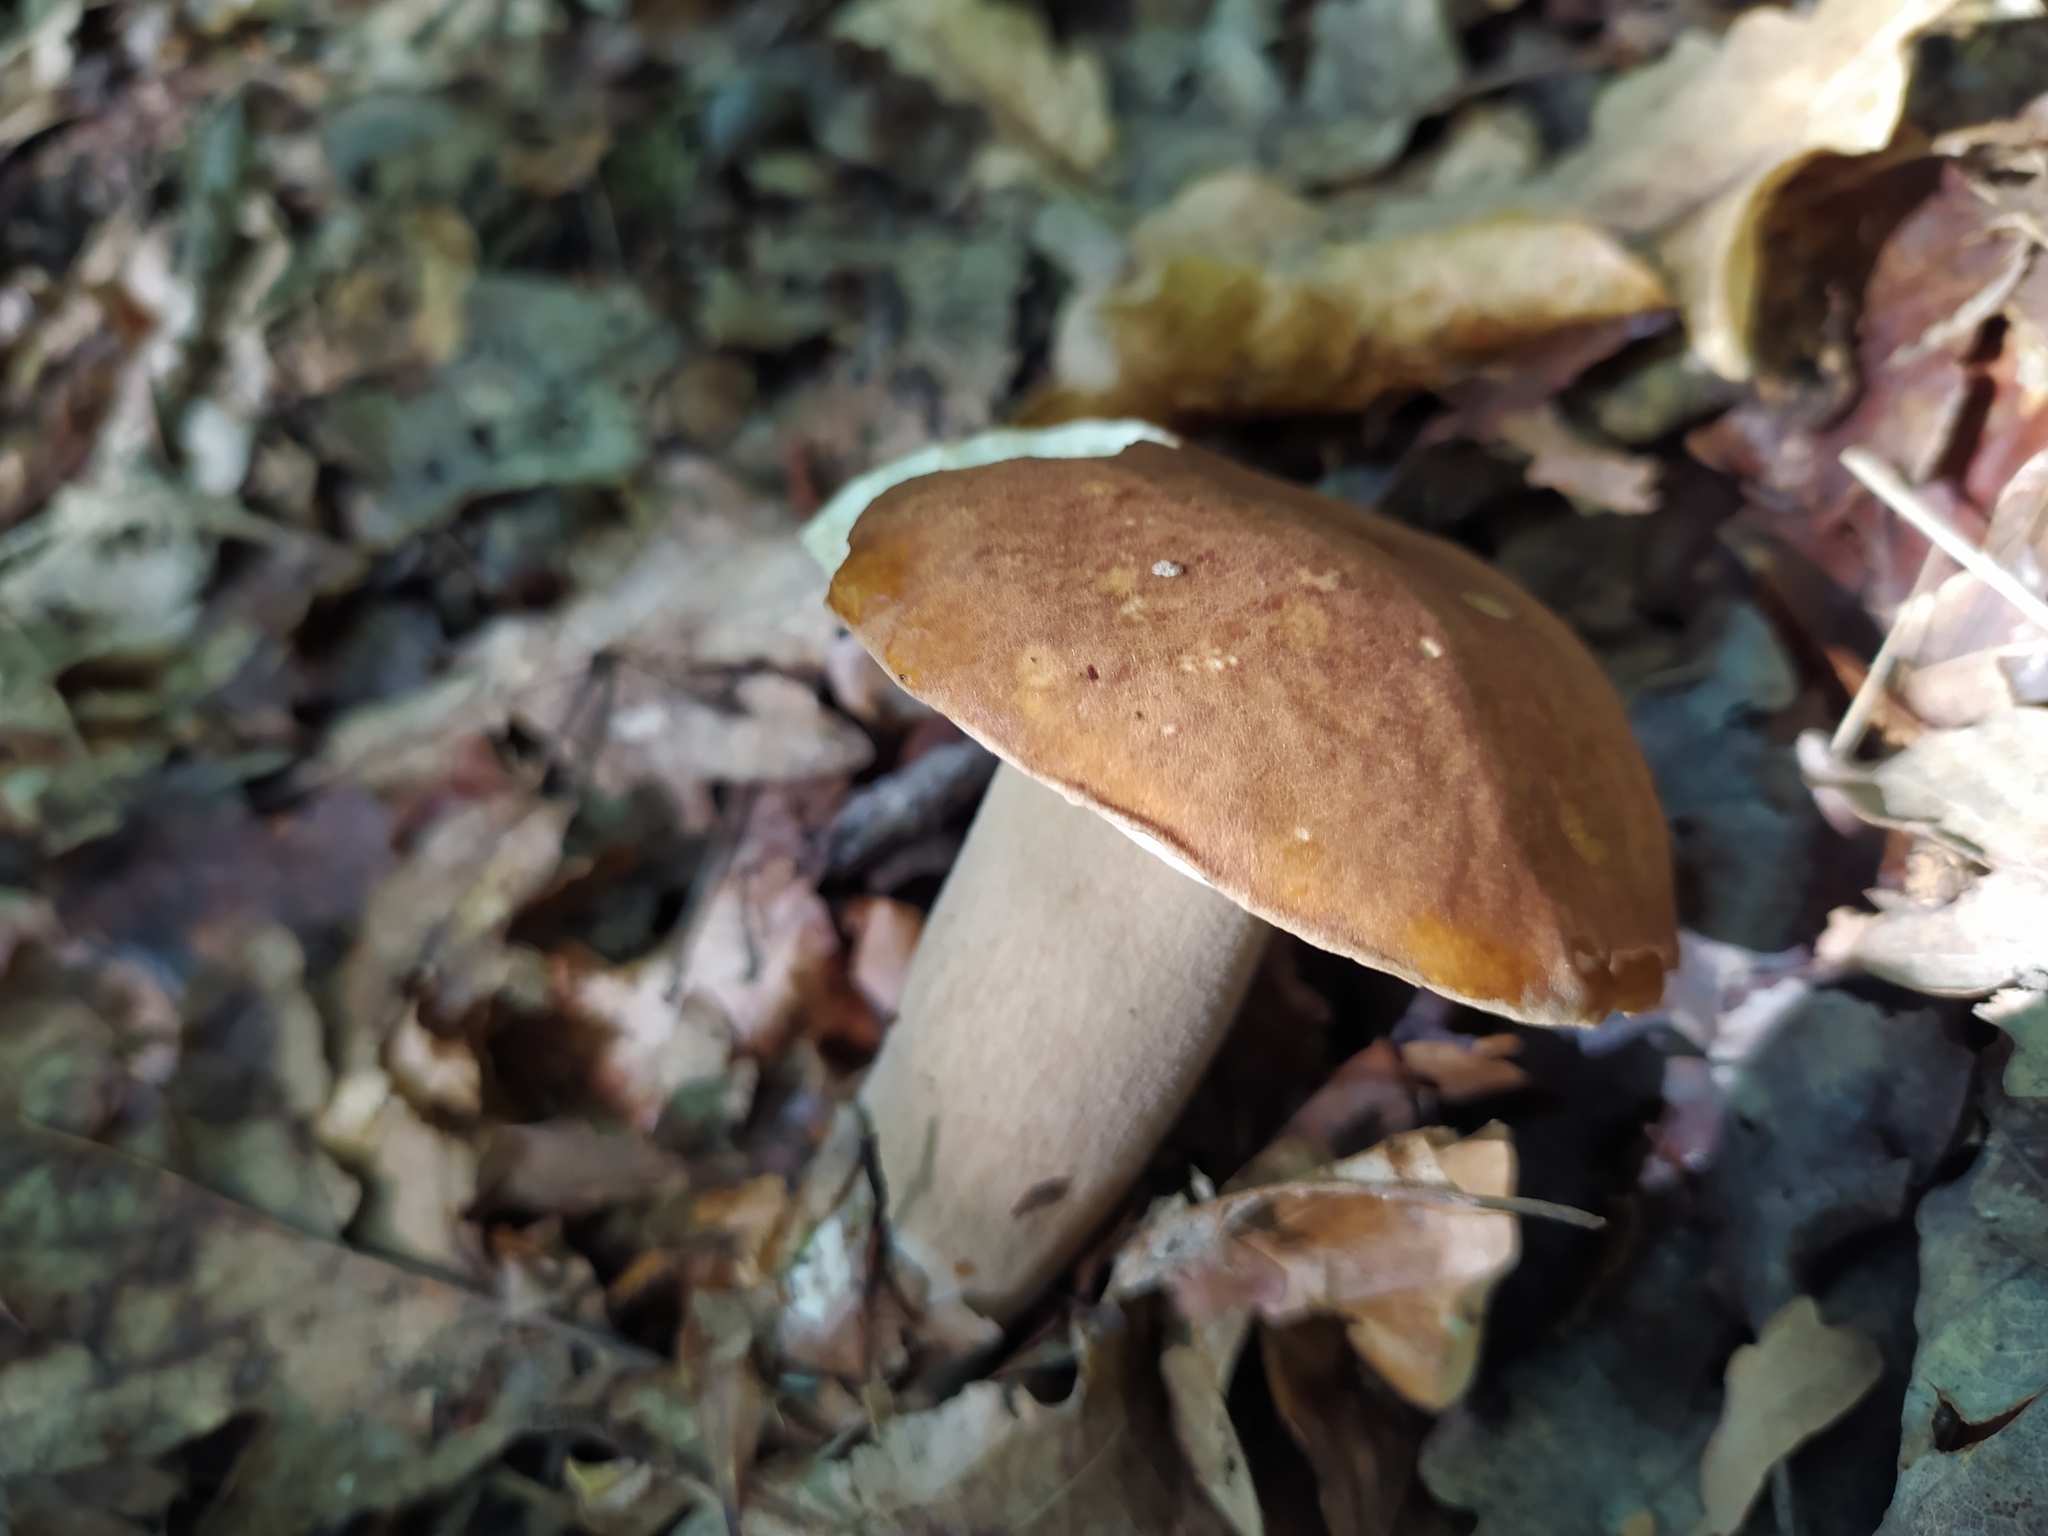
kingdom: Fungi
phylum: Basidiomycota
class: Agaricomycetes
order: Boletales
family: Boletaceae
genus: Boletus
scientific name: Boletus reticulatus
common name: Summer bolete
